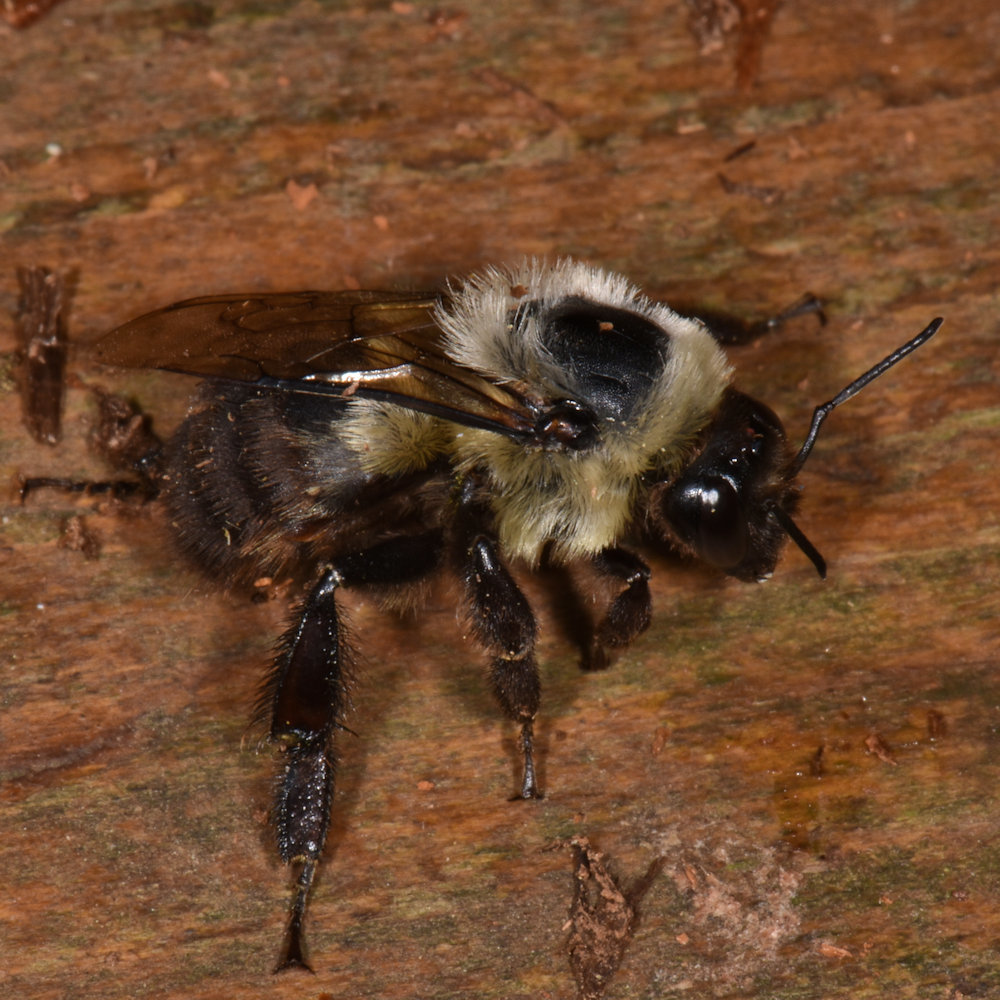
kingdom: Animalia
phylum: Arthropoda
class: Insecta
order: Hymenoptera
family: Apidae
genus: Bombus
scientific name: Bombus impatiens
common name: Common eastern bumble bee
